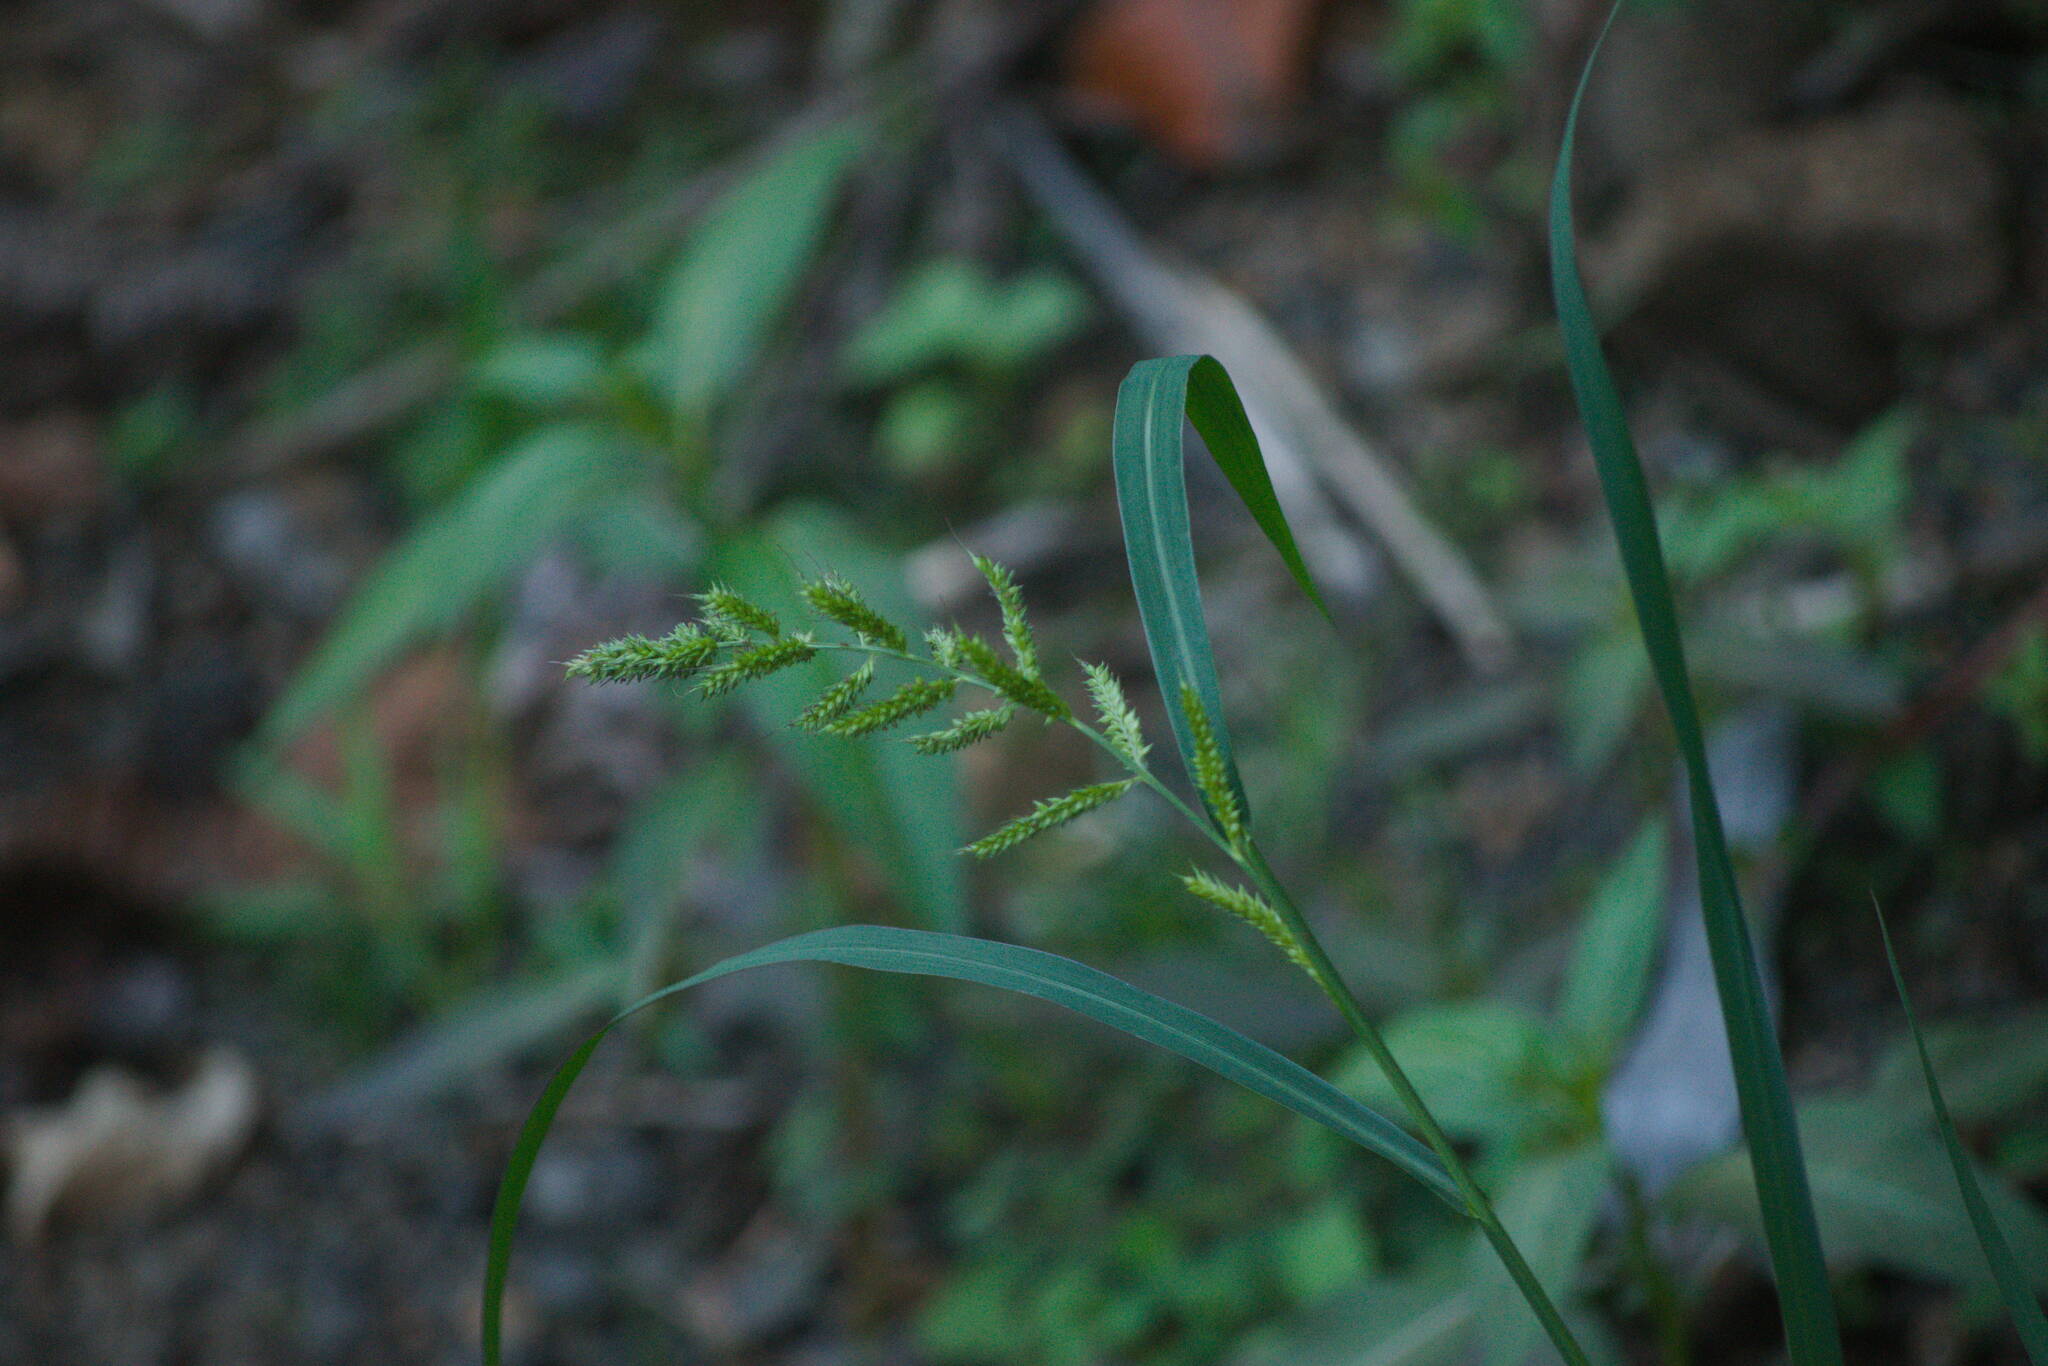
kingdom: Plantae
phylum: Tracheophyta
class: Liliopsida
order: Poales
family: Poaceae
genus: Echinochloa
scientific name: Echinochloa crus-galli
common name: Cockspur
